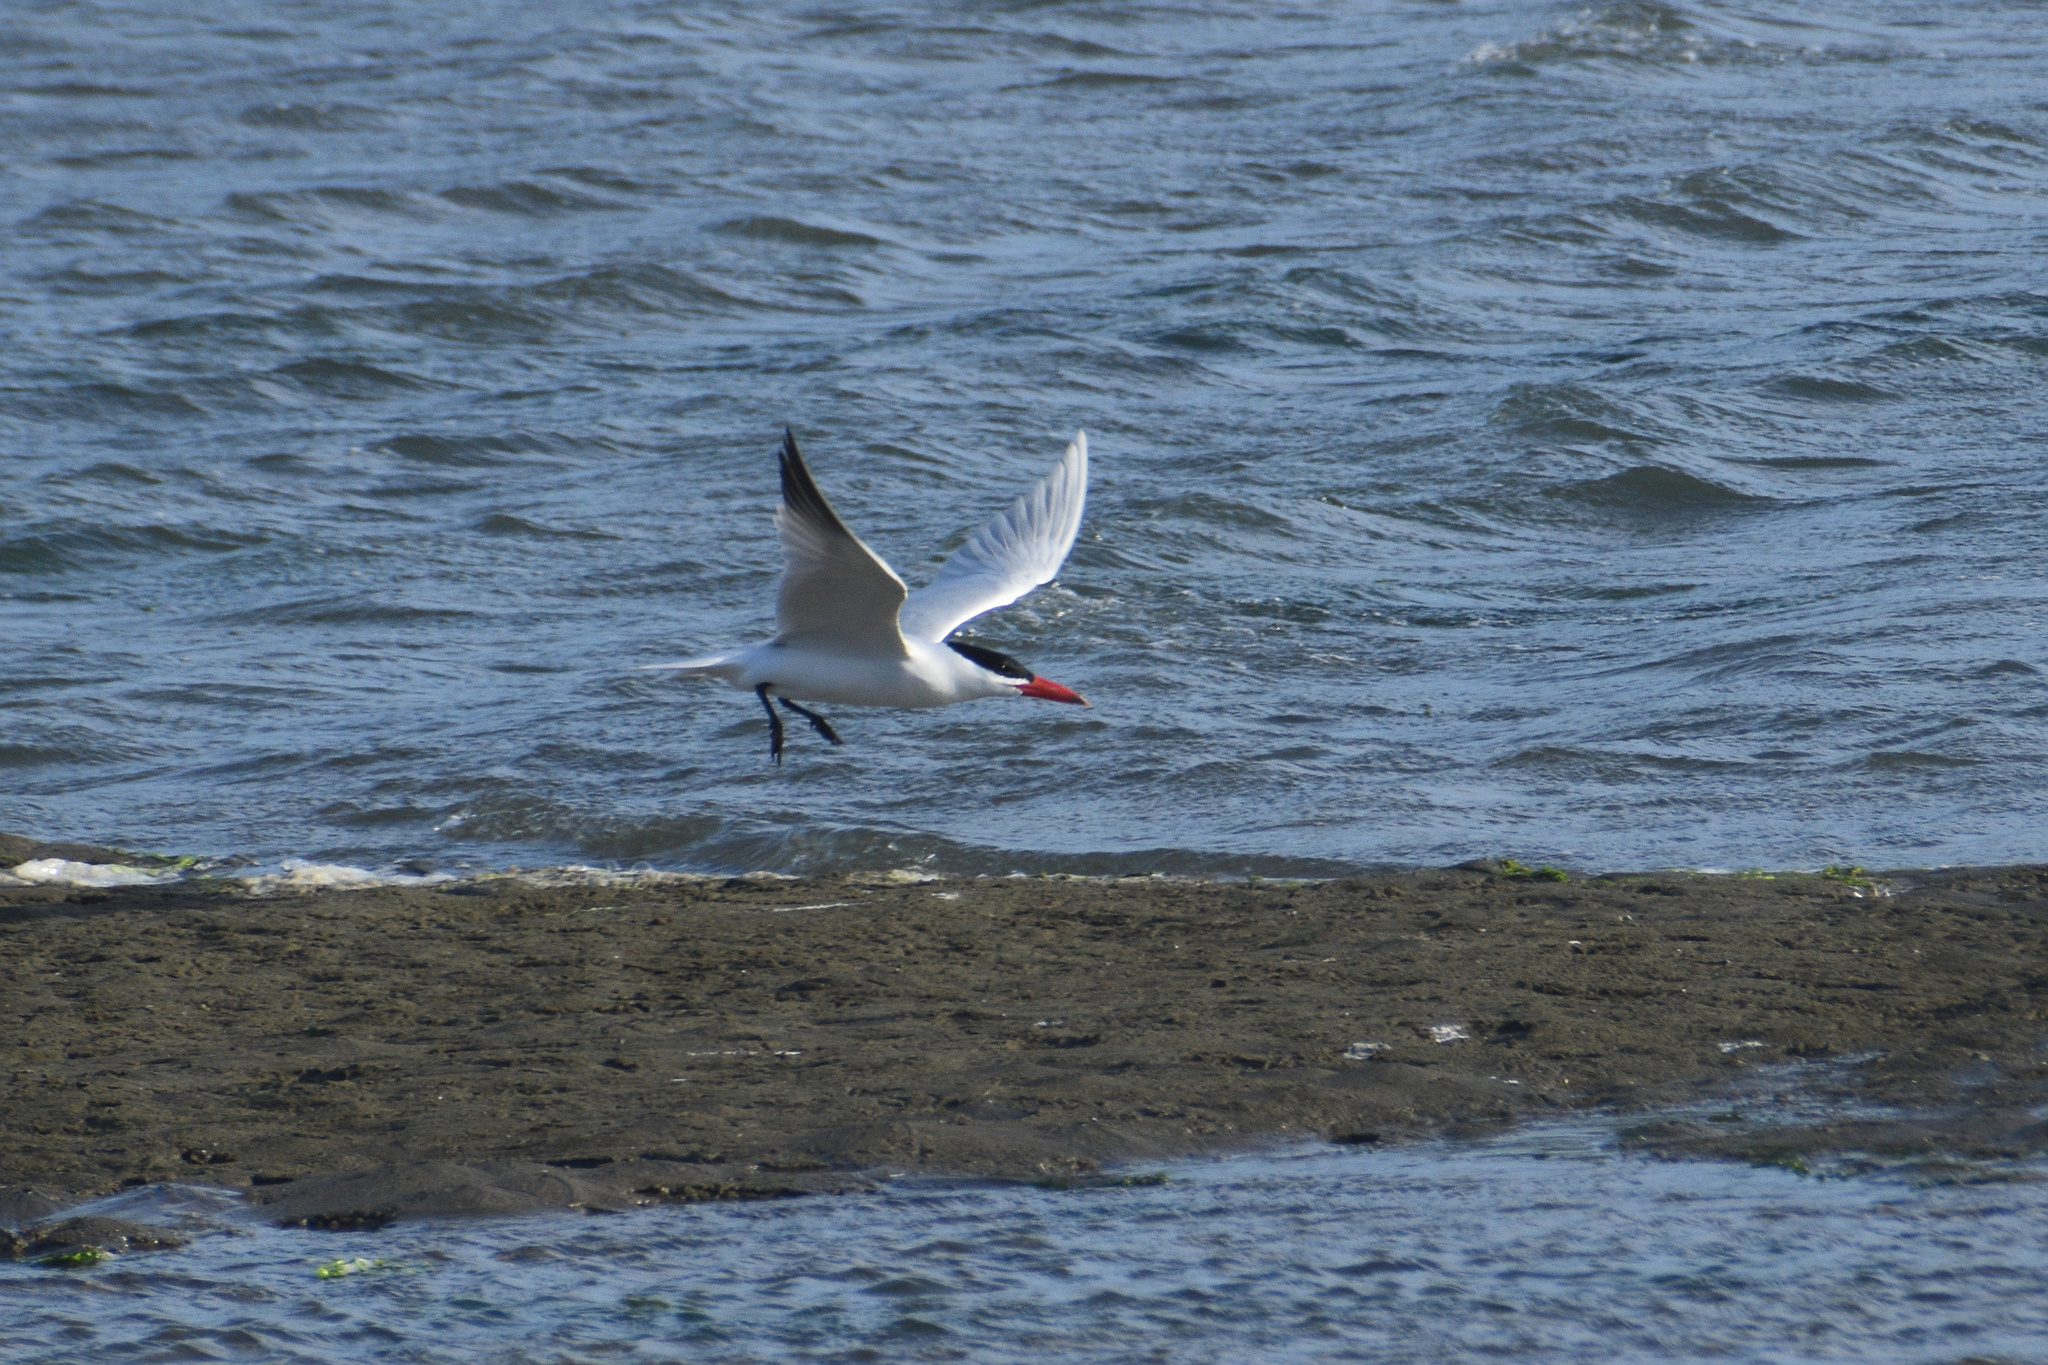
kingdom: Animalia
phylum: Chordata
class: Aves
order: Charadriiformes
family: Laridae
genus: Hydroprogne
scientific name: Hydroprogne caspia
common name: Caspian tern
